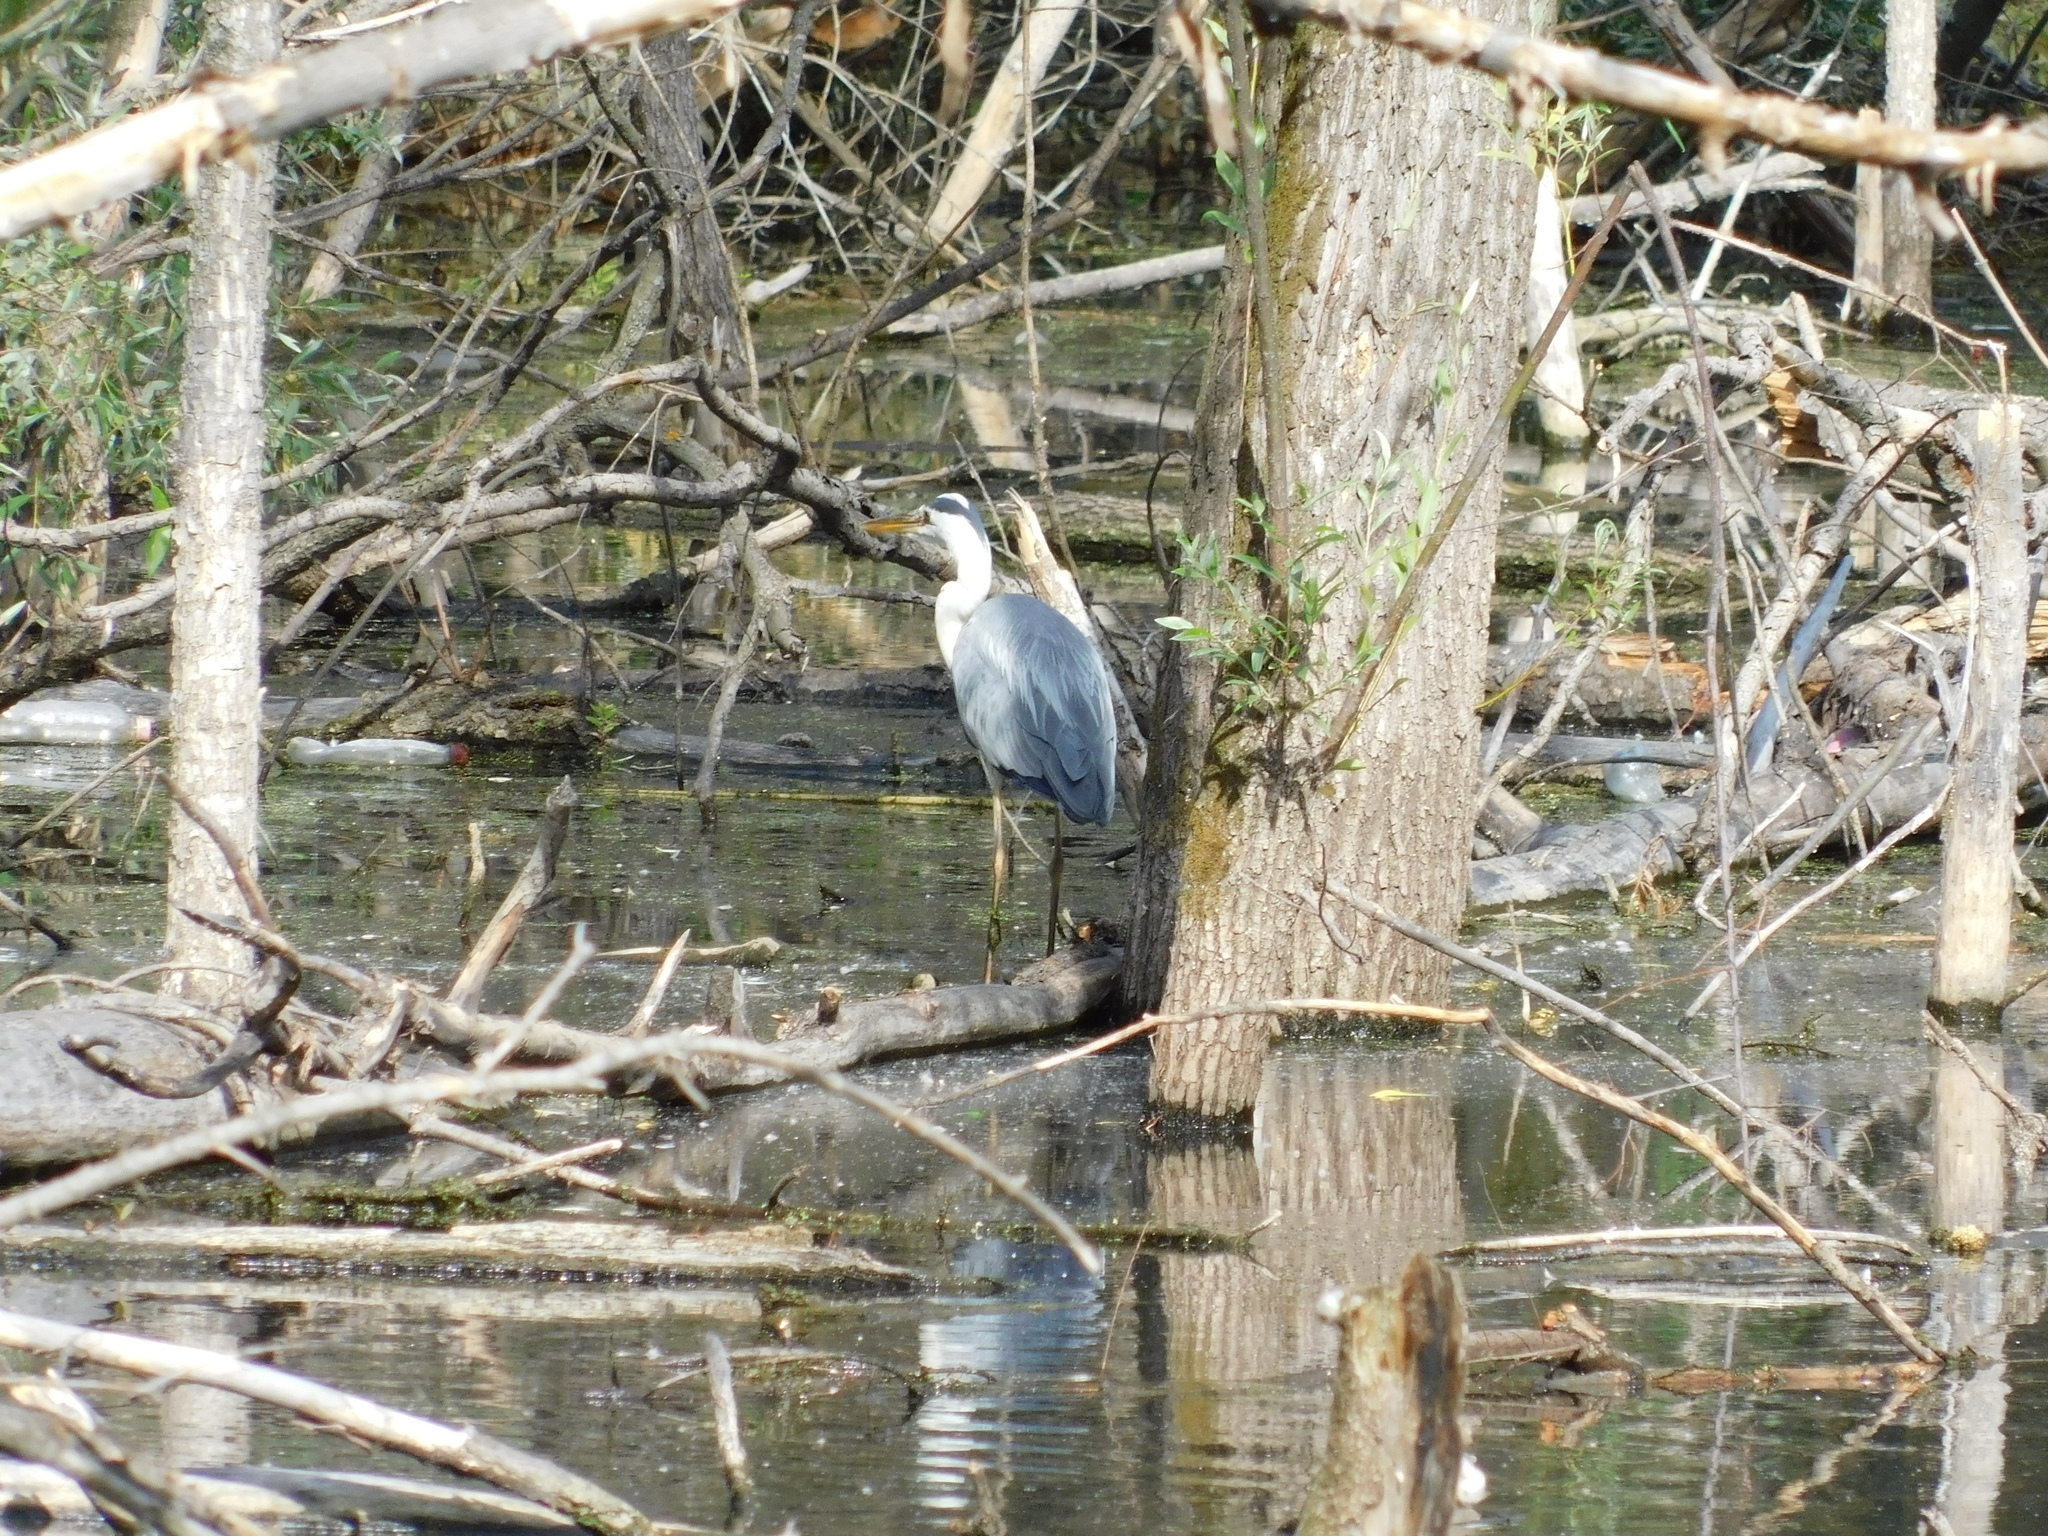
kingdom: Animalia
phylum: Chordata
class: Aves
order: Pelecaniformes
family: Ardeidae
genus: Ardea
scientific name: Ardea cinerea
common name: Grey heron
